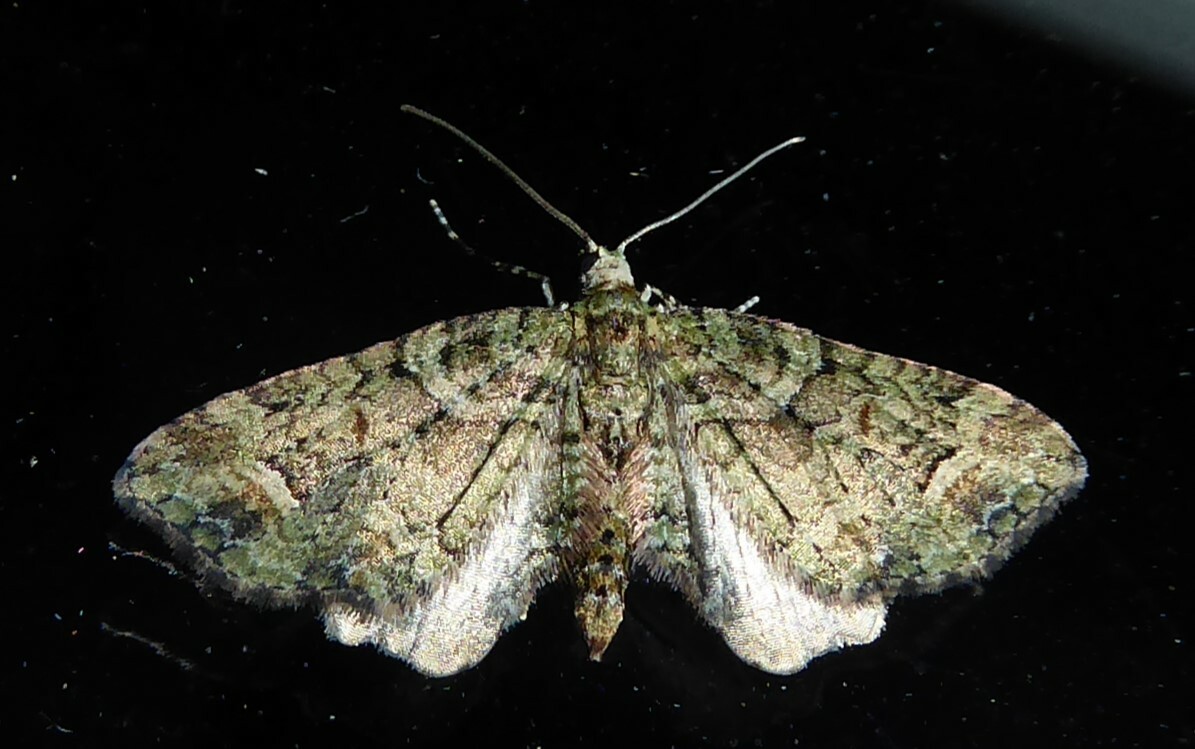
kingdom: Animalia
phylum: Arthropoda
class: Insecta
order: Lepidoptera
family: Geometridae
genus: Idaea
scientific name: Idaea mutanda
